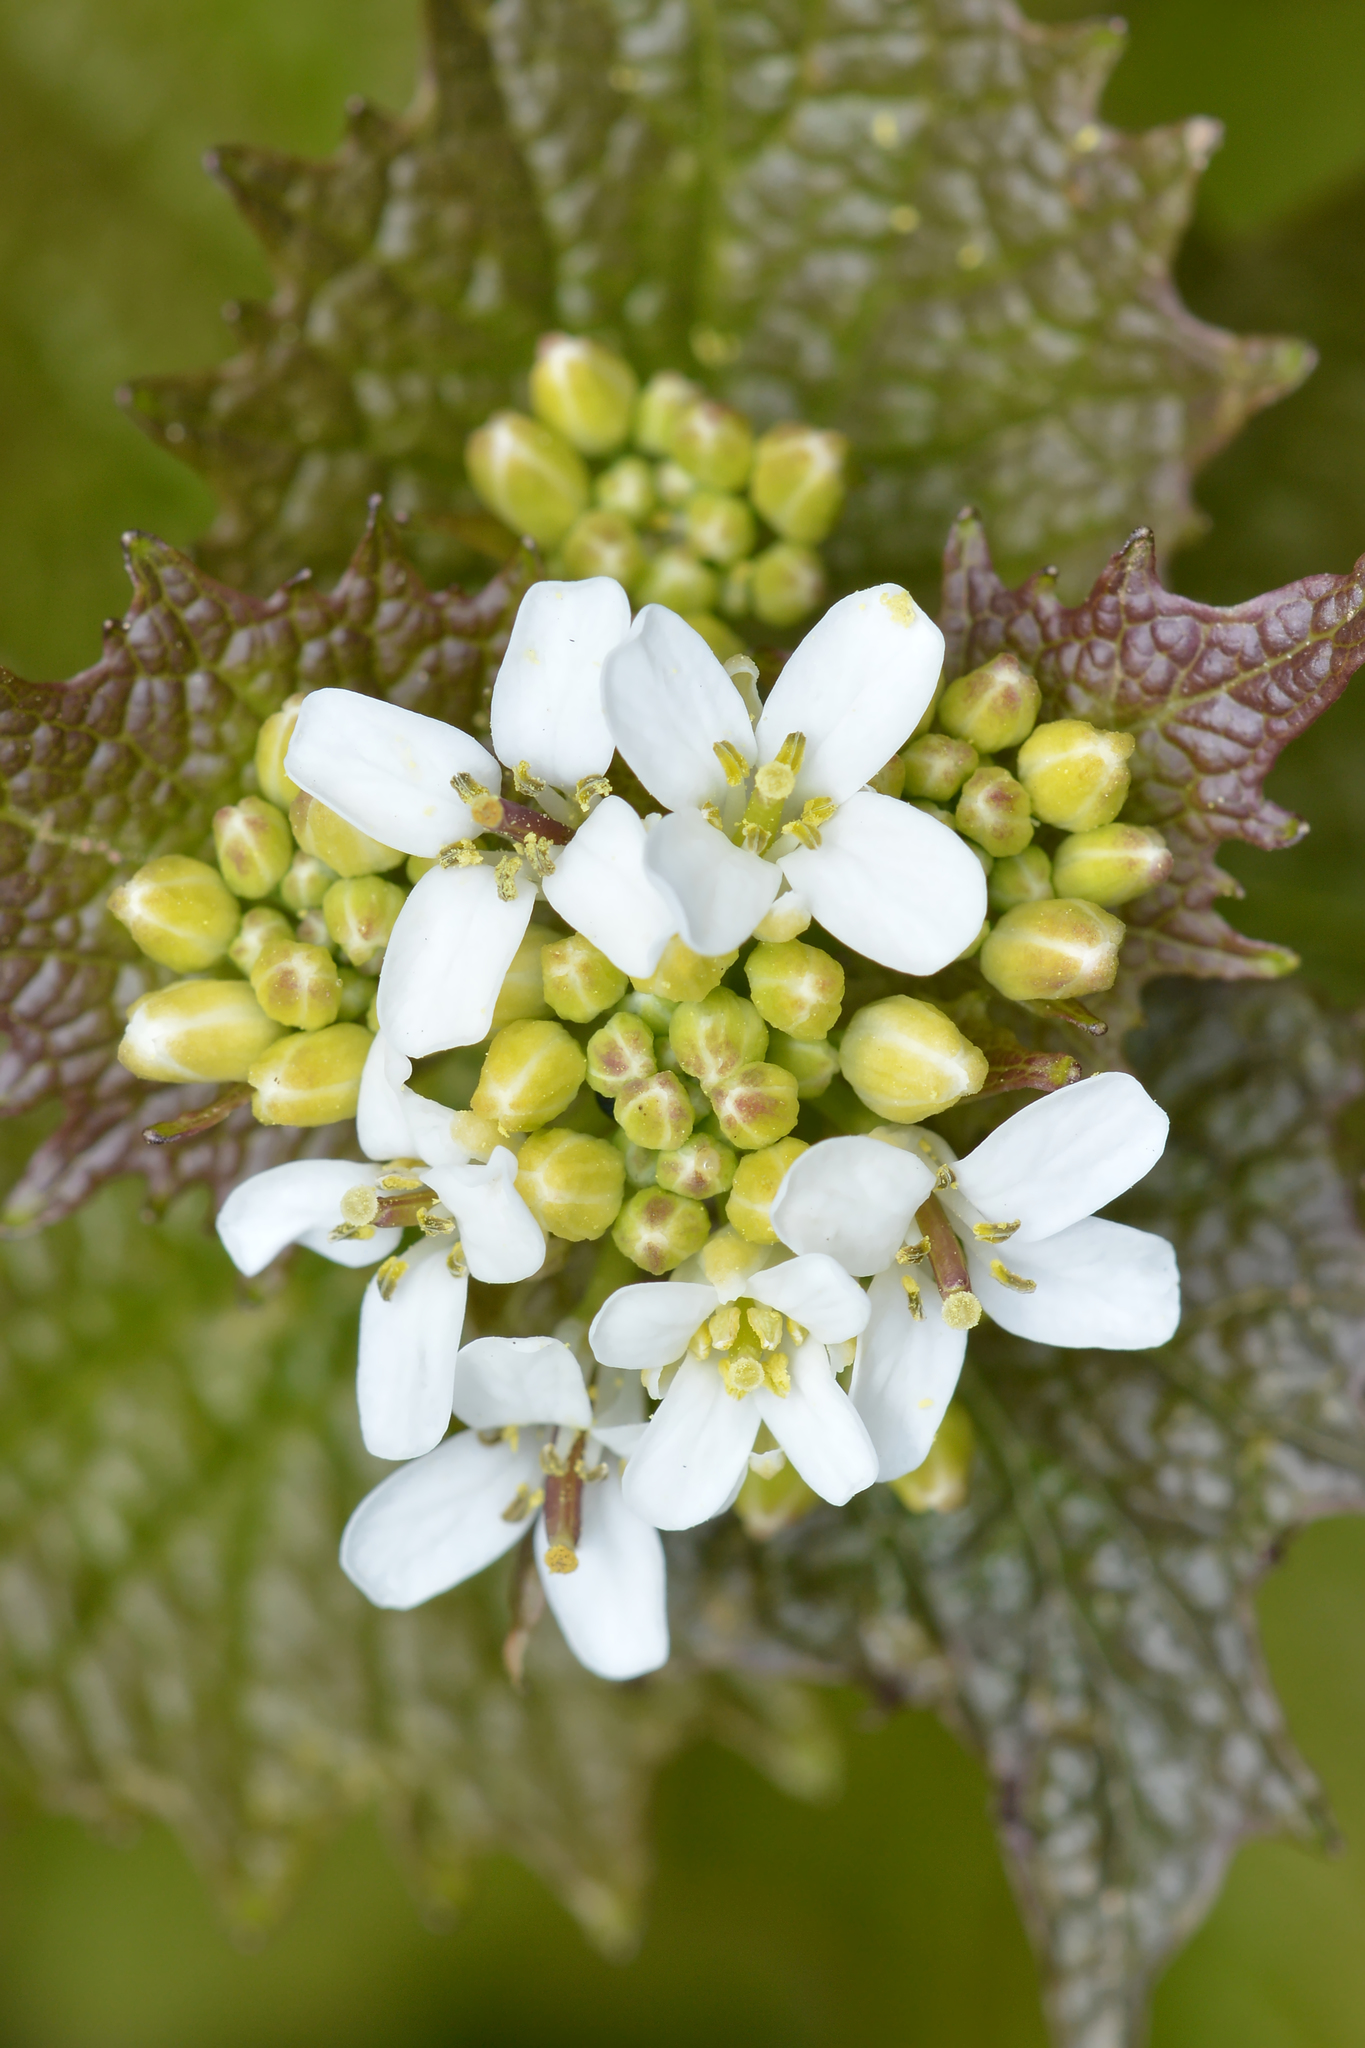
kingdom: Plantae
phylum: Tracheophyta
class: Magnoliopsida
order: Brassicales
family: Brassicaceae
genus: Alliaria
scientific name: Alliaria petiolata
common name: Garlic mustard
